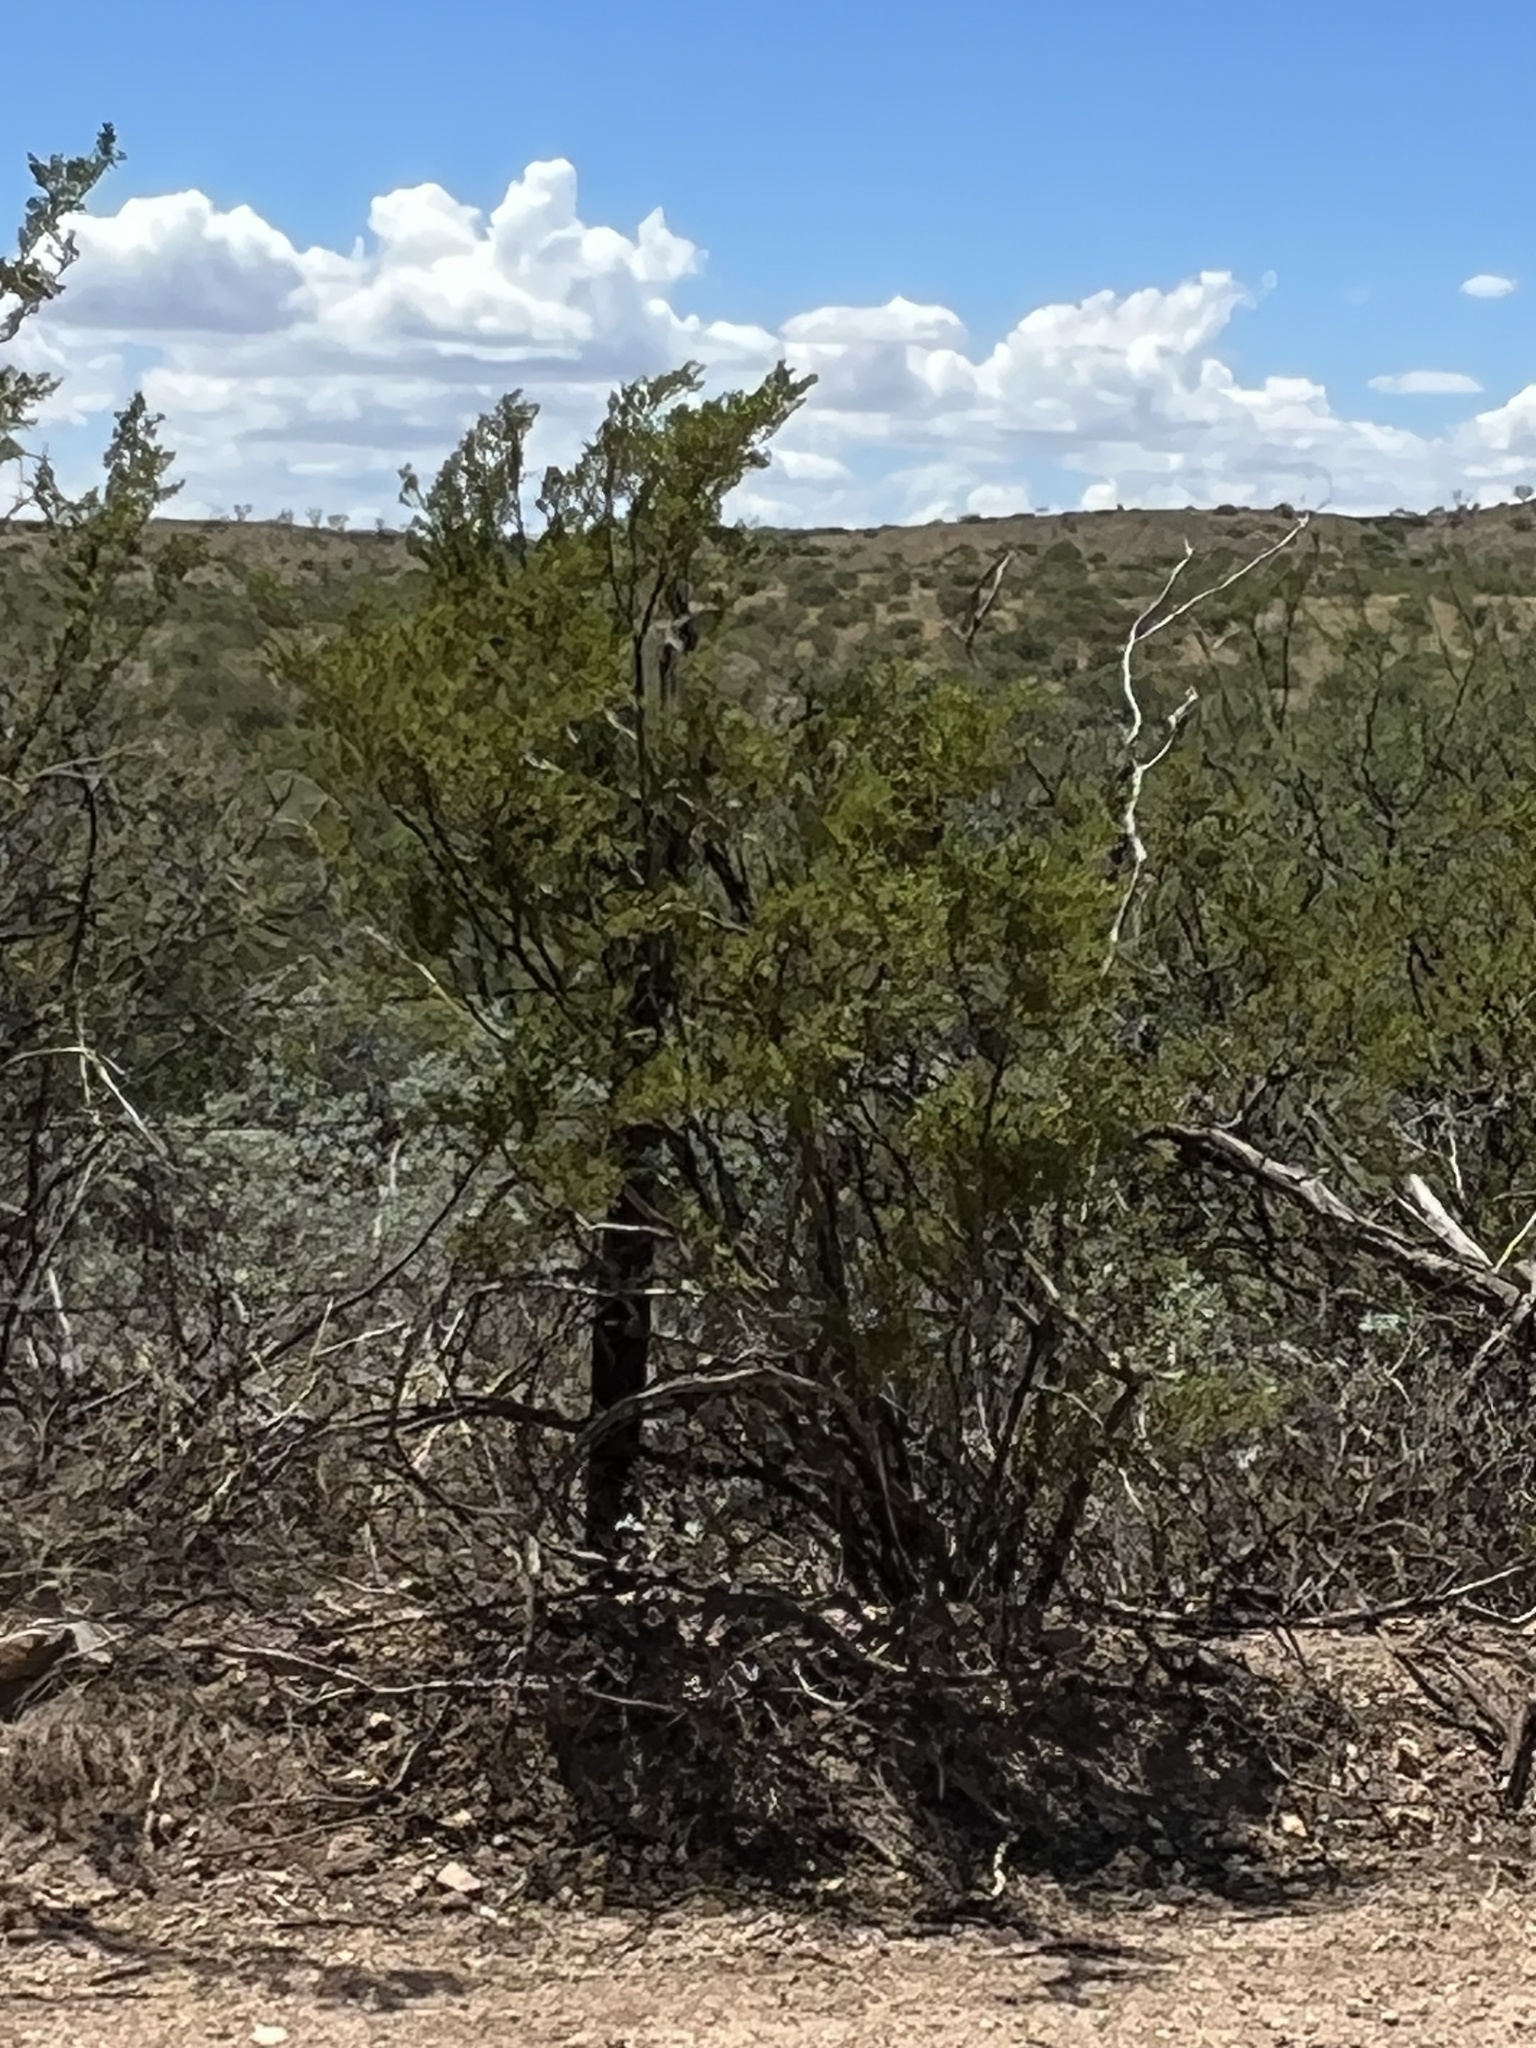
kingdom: Plantae
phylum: Tracheophyta
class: Magnoliopsida
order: Zygophyllales
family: Zygophyllaceae
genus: Larrea
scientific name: Larrea tridentata
